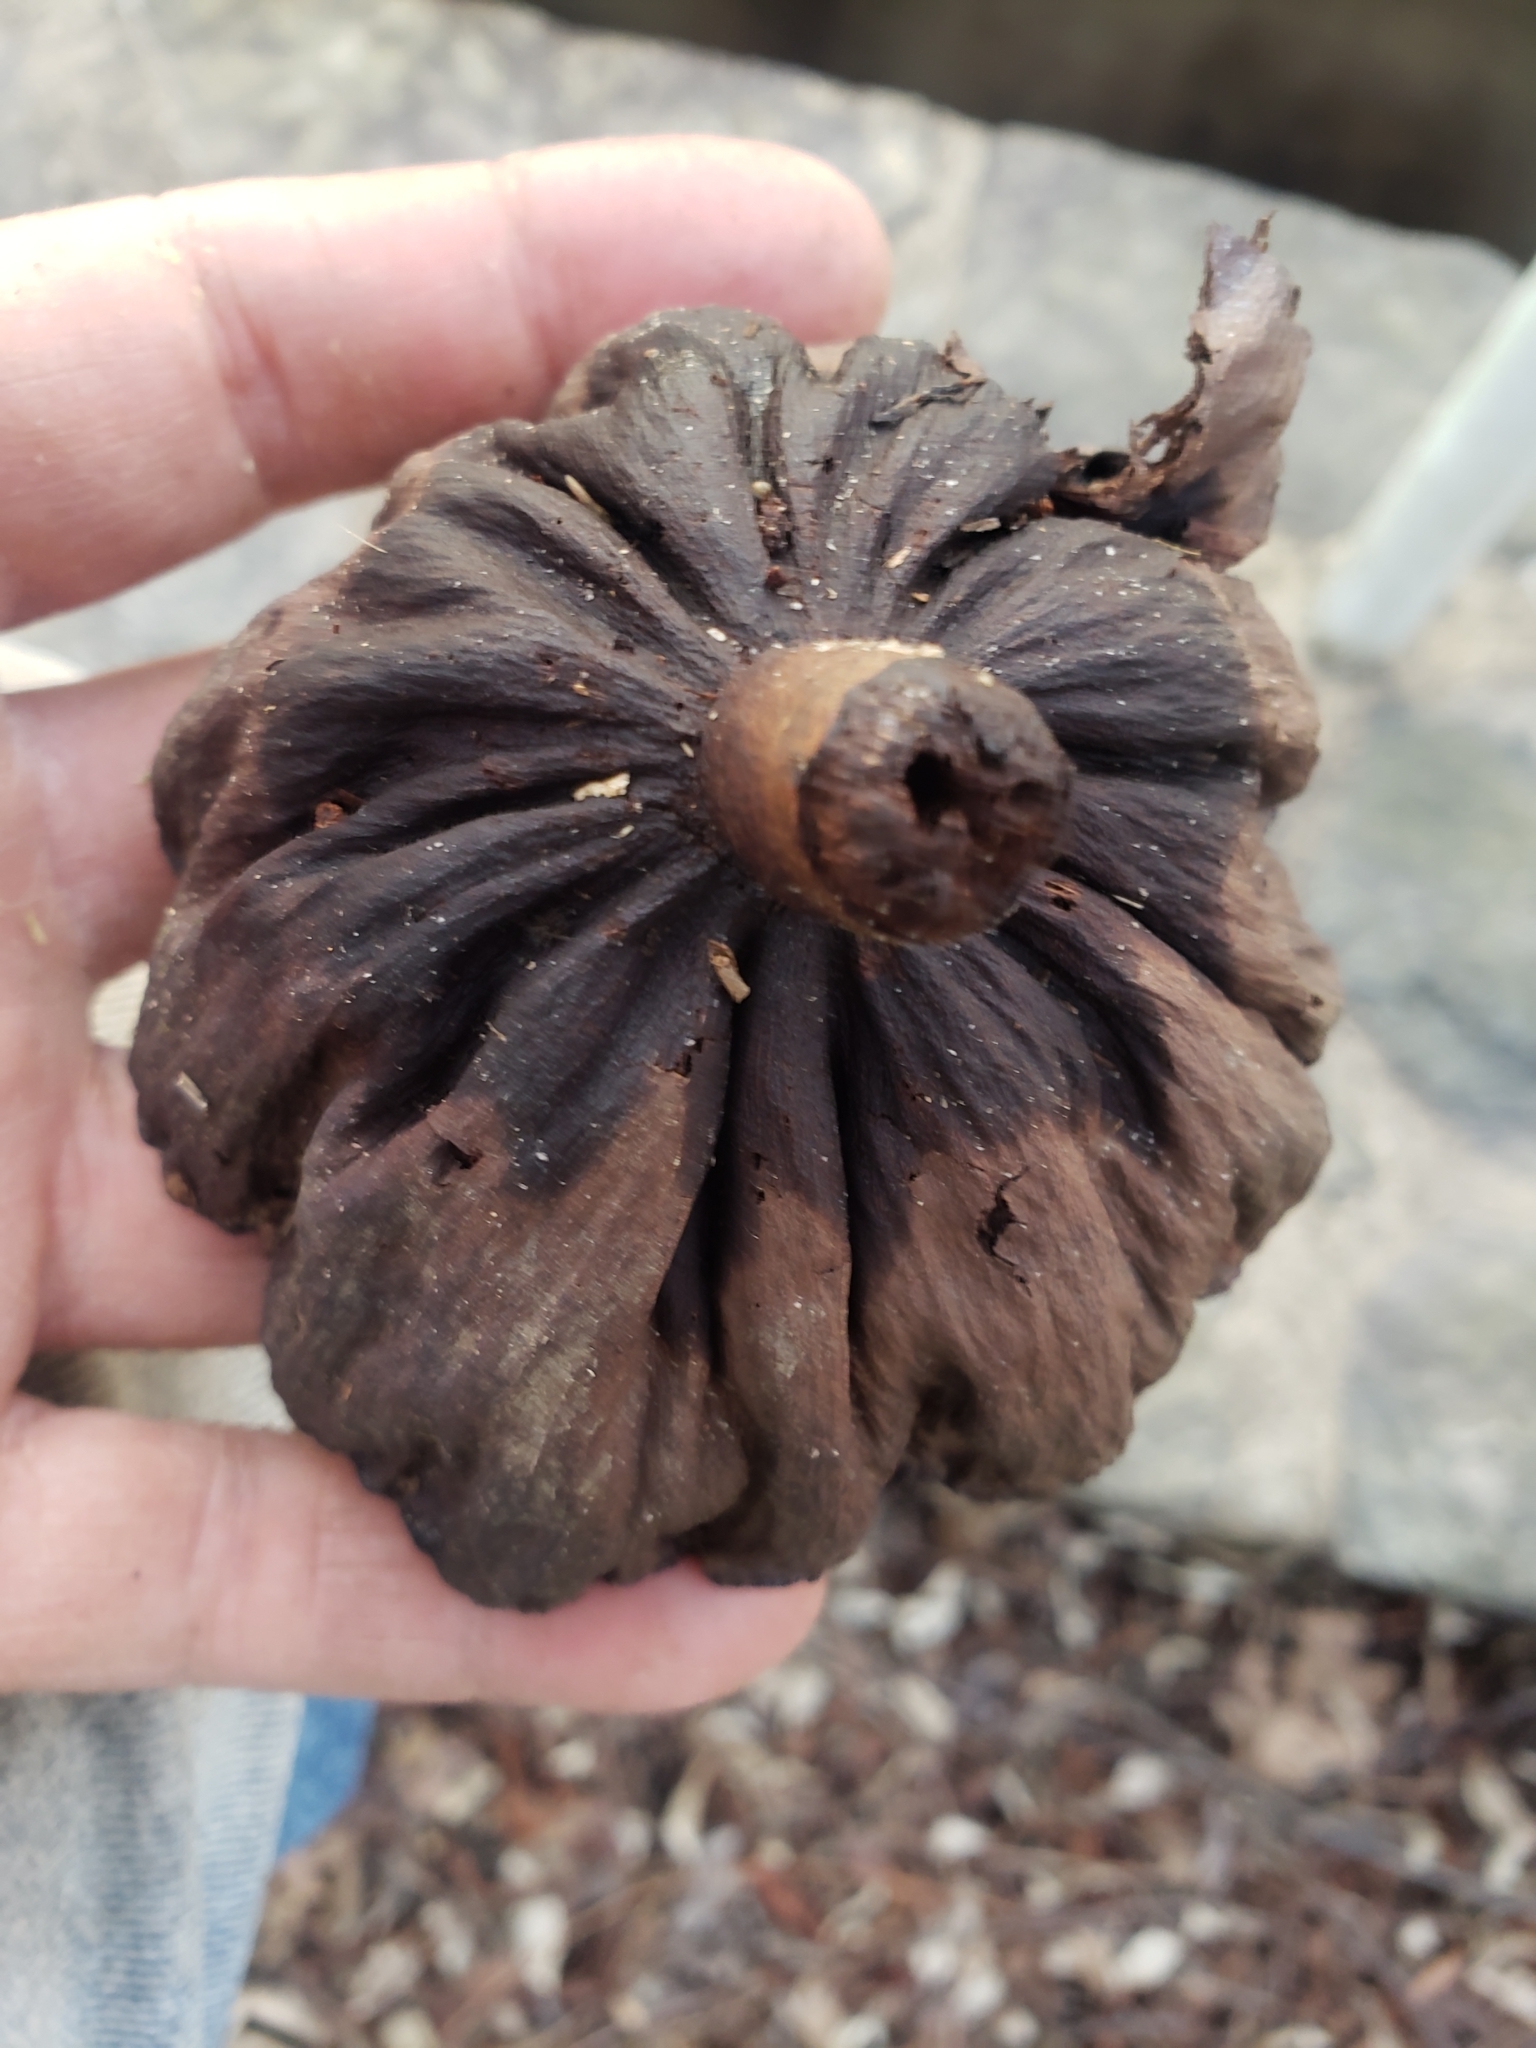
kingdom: Plantae
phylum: Tracheophyta
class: Magnoliopsida
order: Proteales
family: Nelumbonaceae
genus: Nelumbo
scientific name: Nelumbo lutea
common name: American lotus
